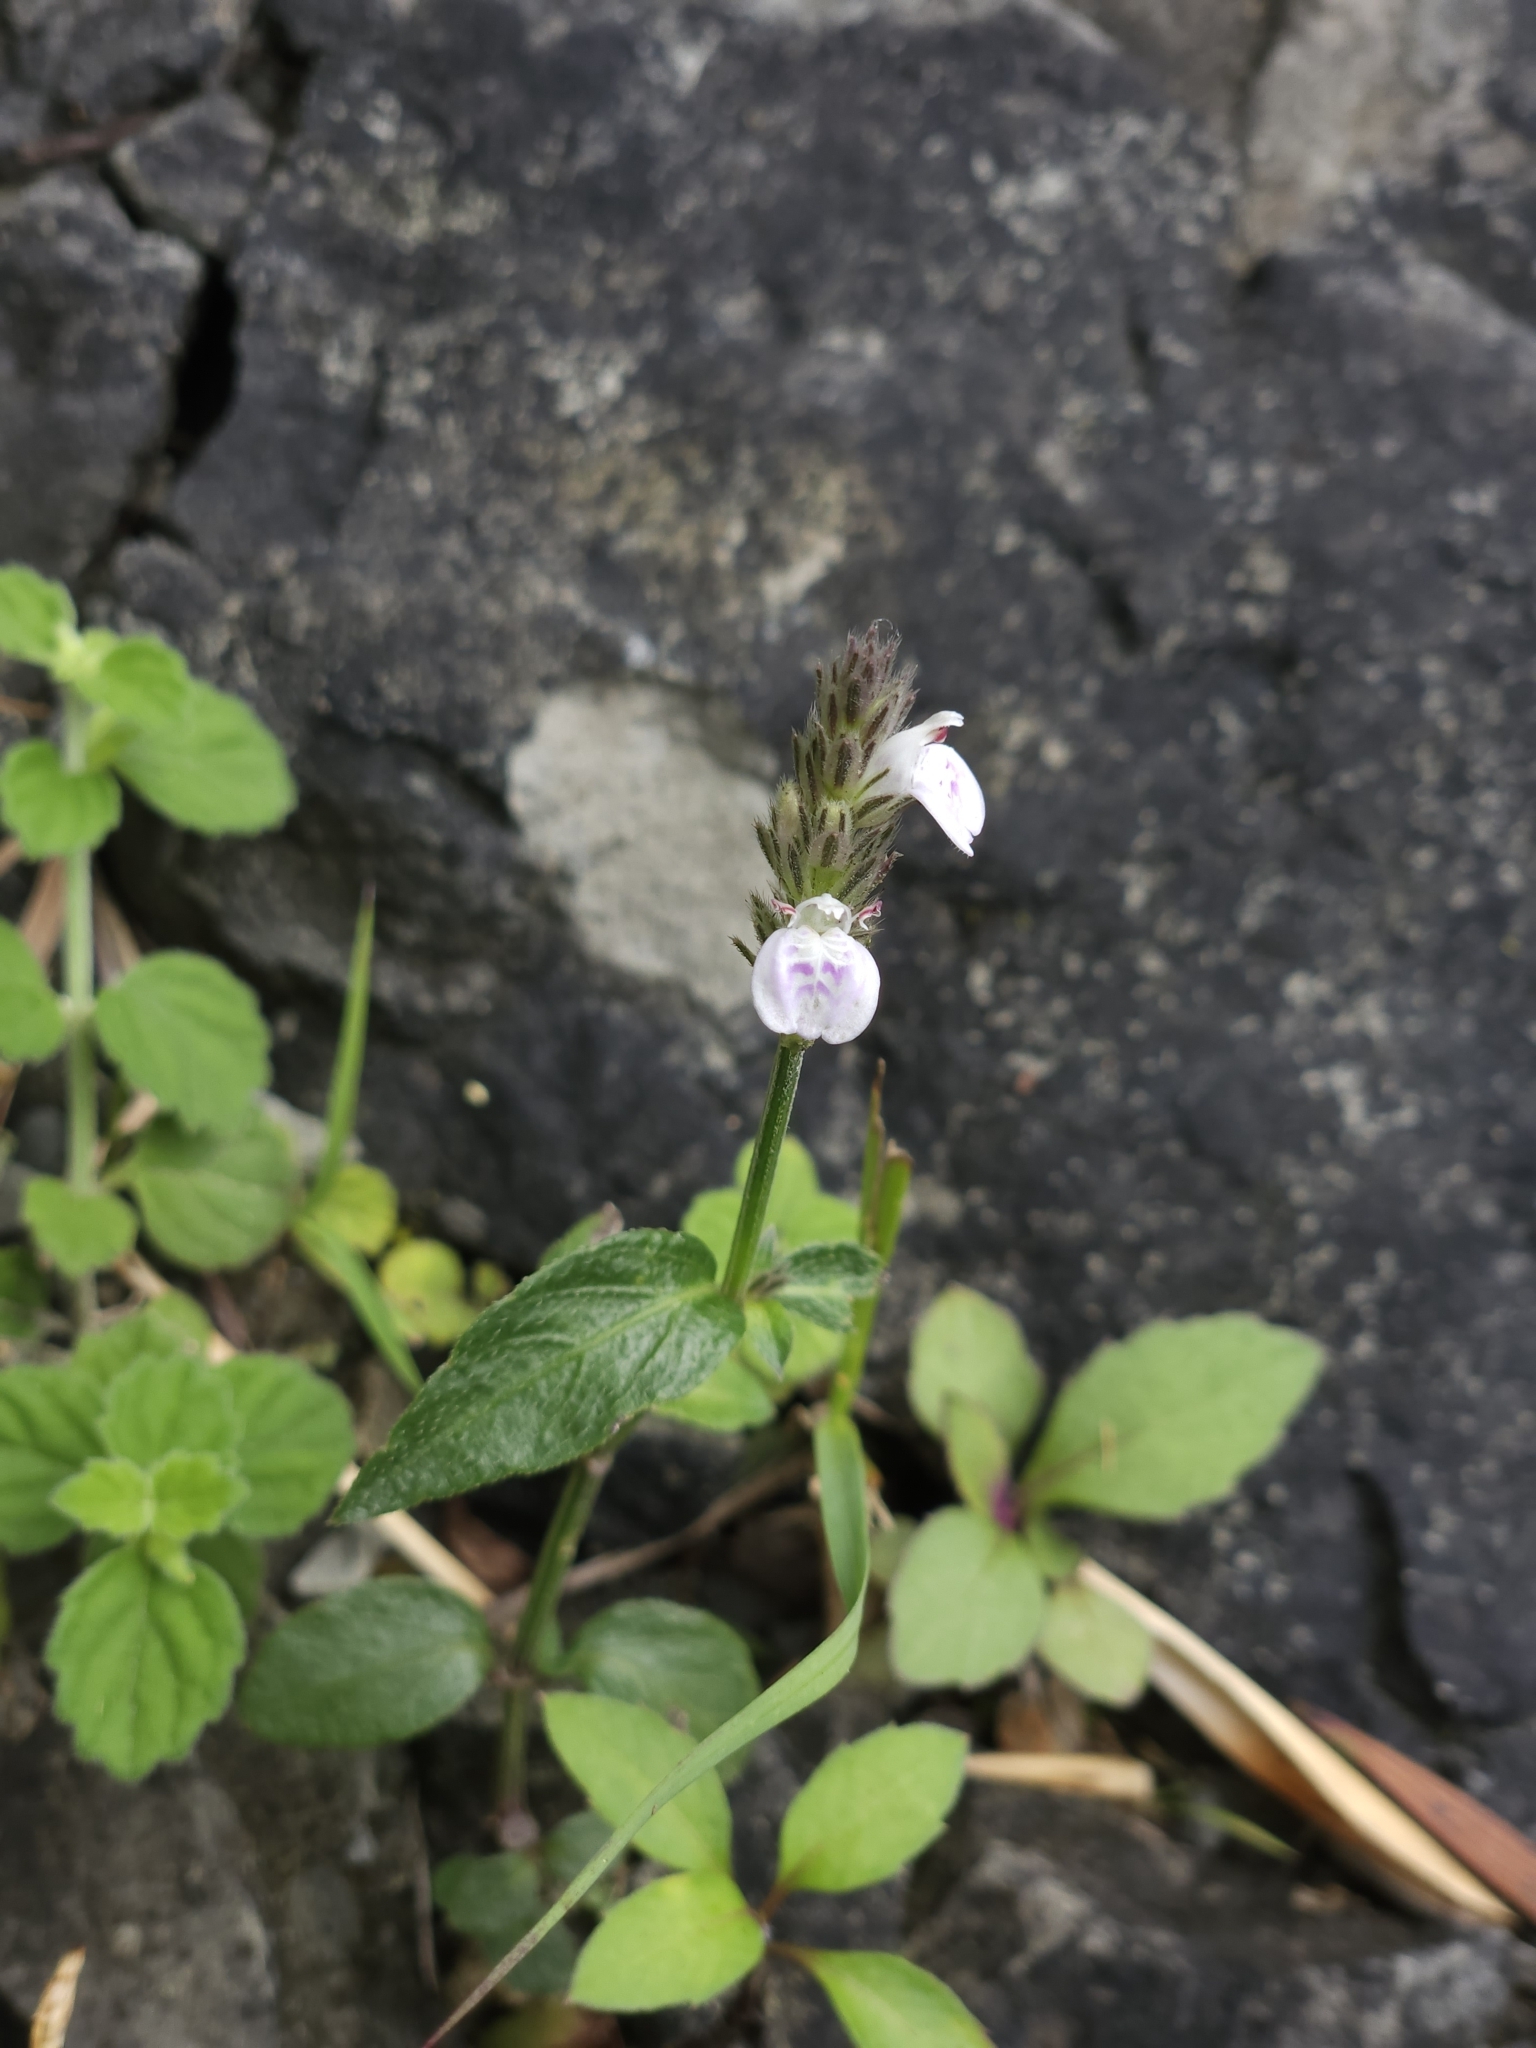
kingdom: Plantae
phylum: Tracheophyta
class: Magnoliopsida
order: Lamiales
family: Acanthaceae
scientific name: Acanthaceae
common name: Acanthaceae
